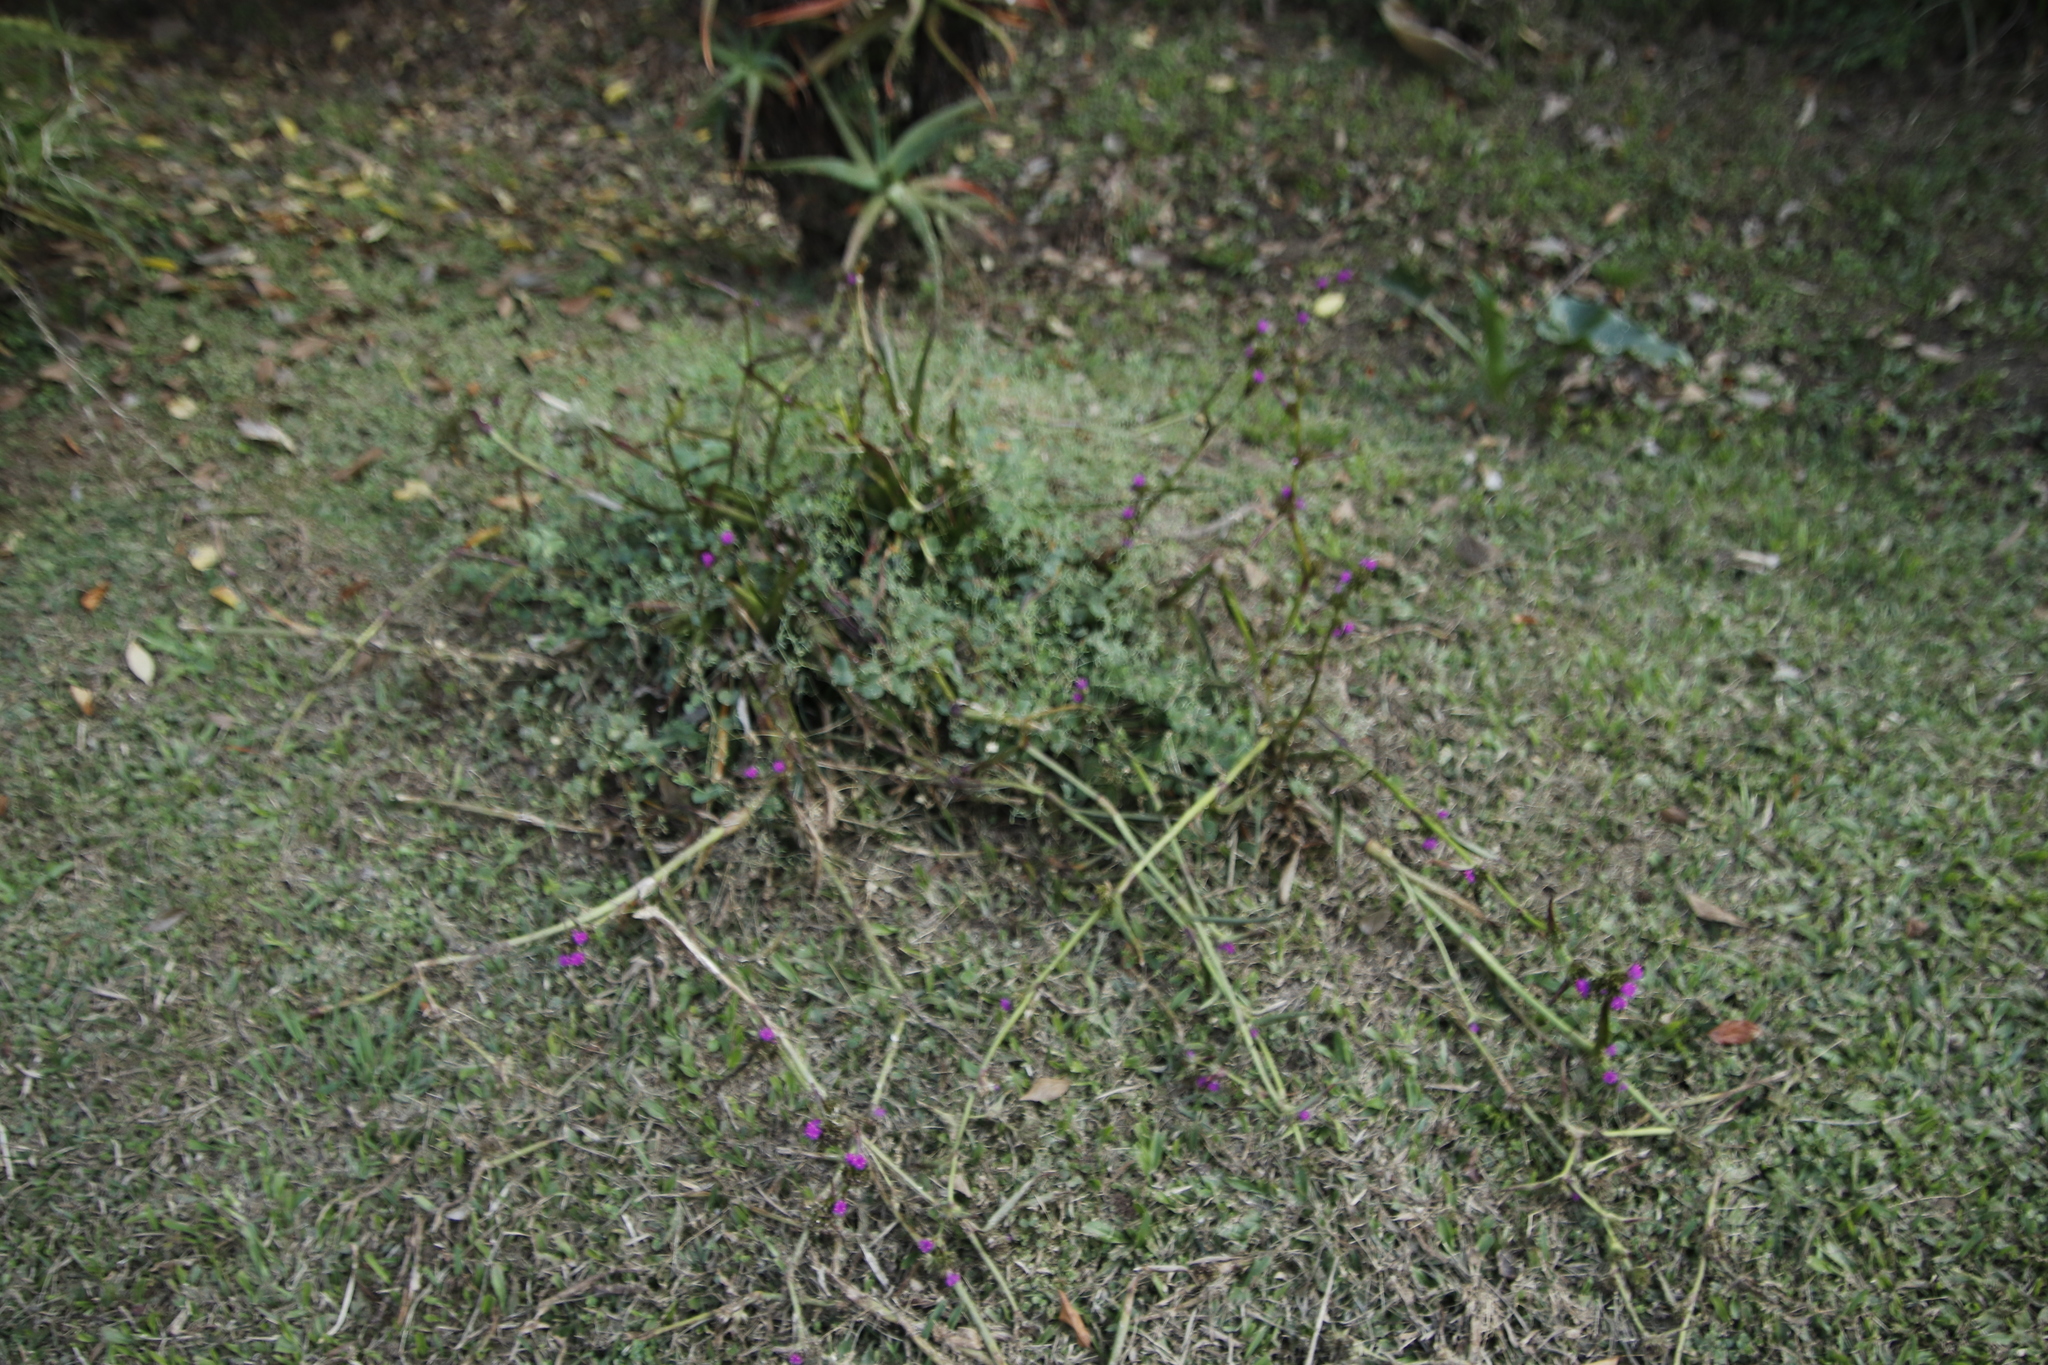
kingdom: Plantae
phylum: Tracheophyta
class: Liliopsida
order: Commelinales
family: Commelinaceae
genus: Cyanotis
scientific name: Cyanotis speciosa
